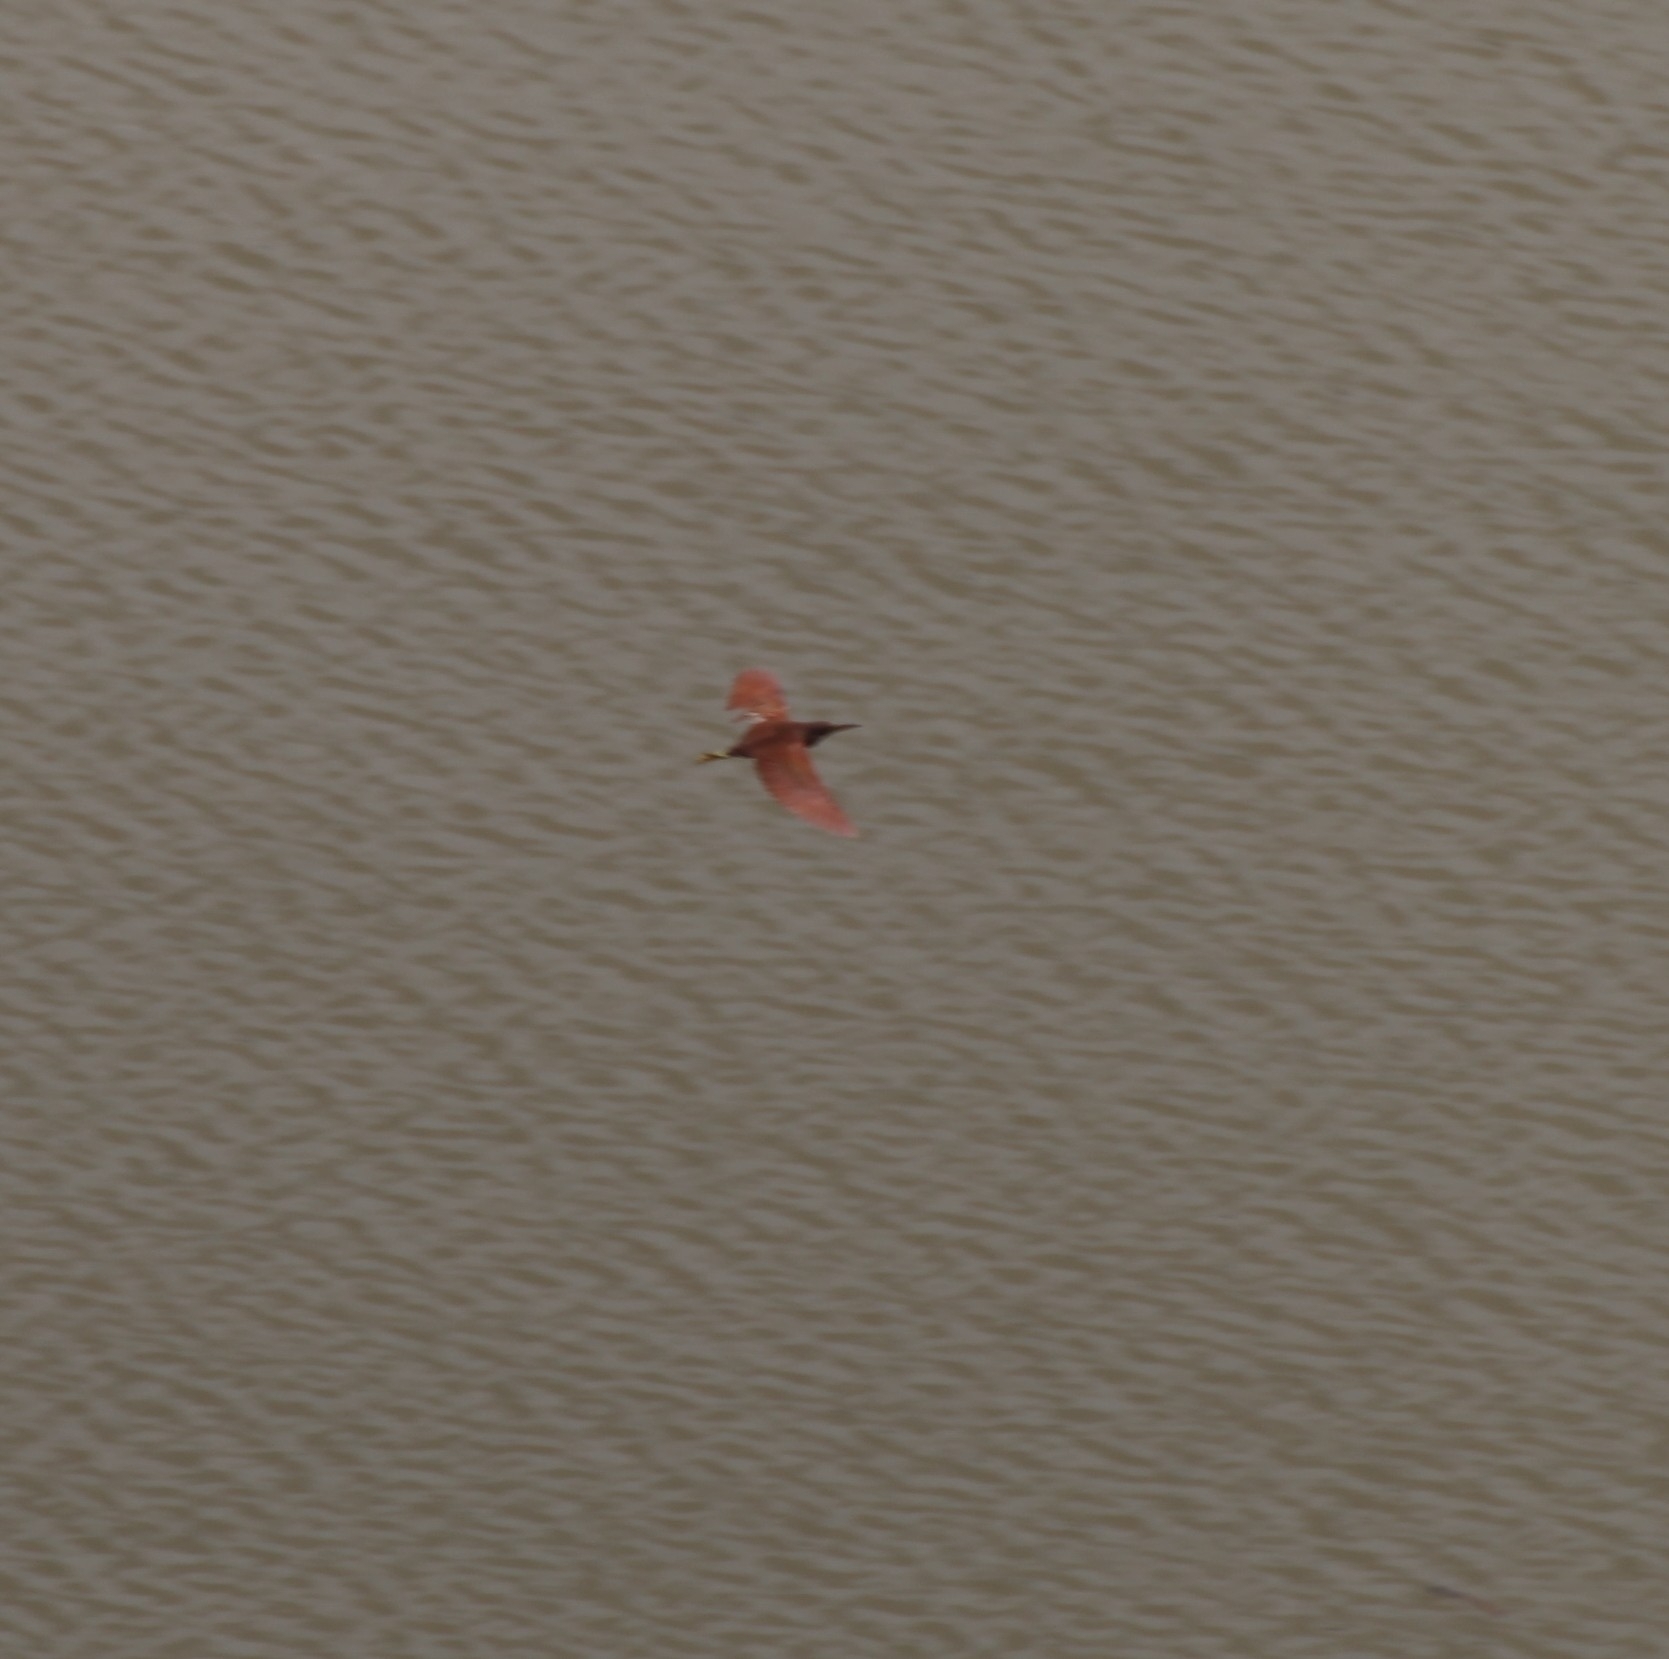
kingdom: Animalia
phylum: Chordata
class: Aves
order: Pelecaniformes
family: Ardeidae
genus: Ixobrychus
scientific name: Ixobrychus cinnamomeus
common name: Cinnamon bittern
